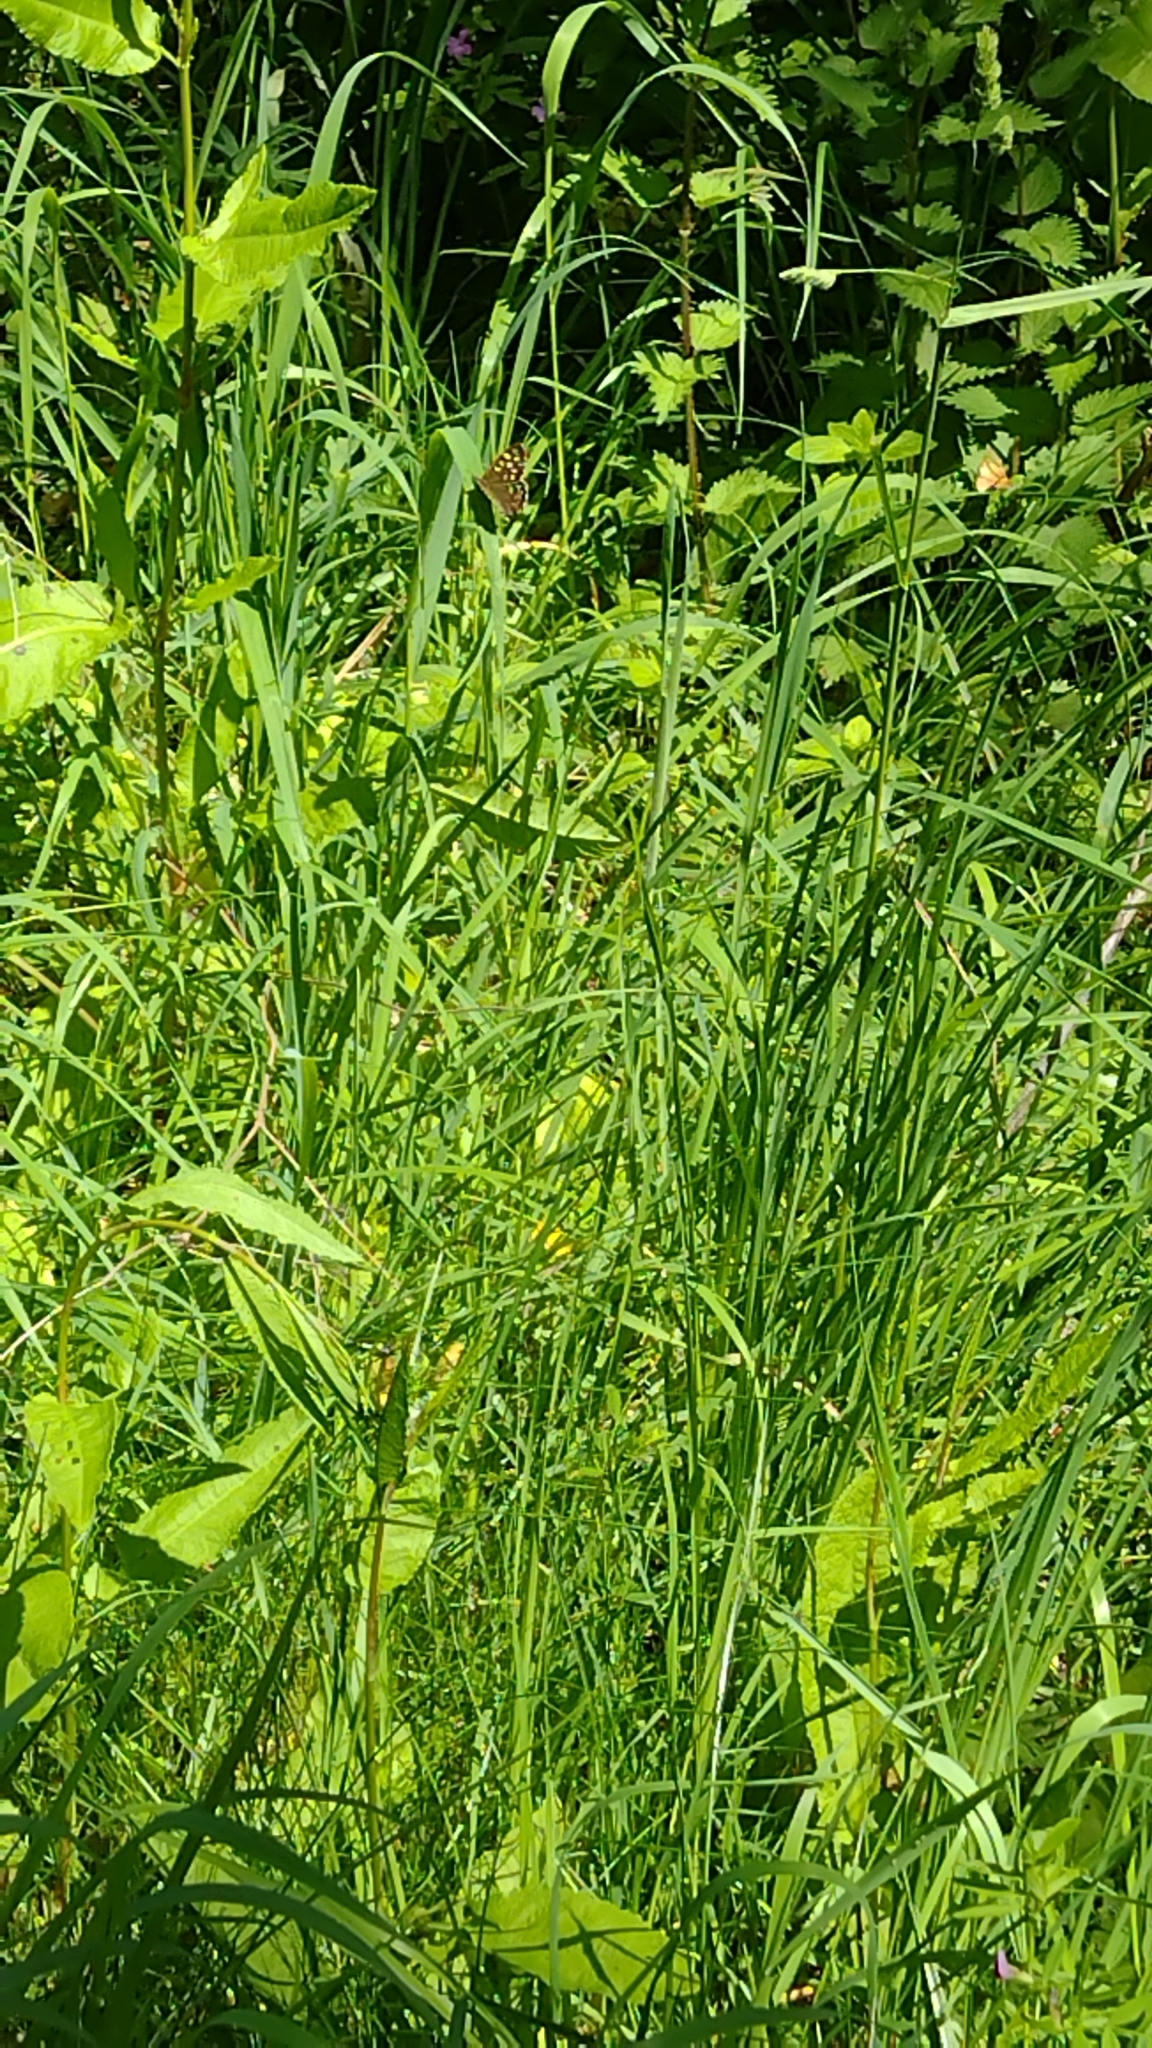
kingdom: Animalia
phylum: Arthropoda
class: Insecta
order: Lepidoptera
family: Nymphalidae
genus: Pararge
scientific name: Pararge aegeria
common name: Speckled wood
